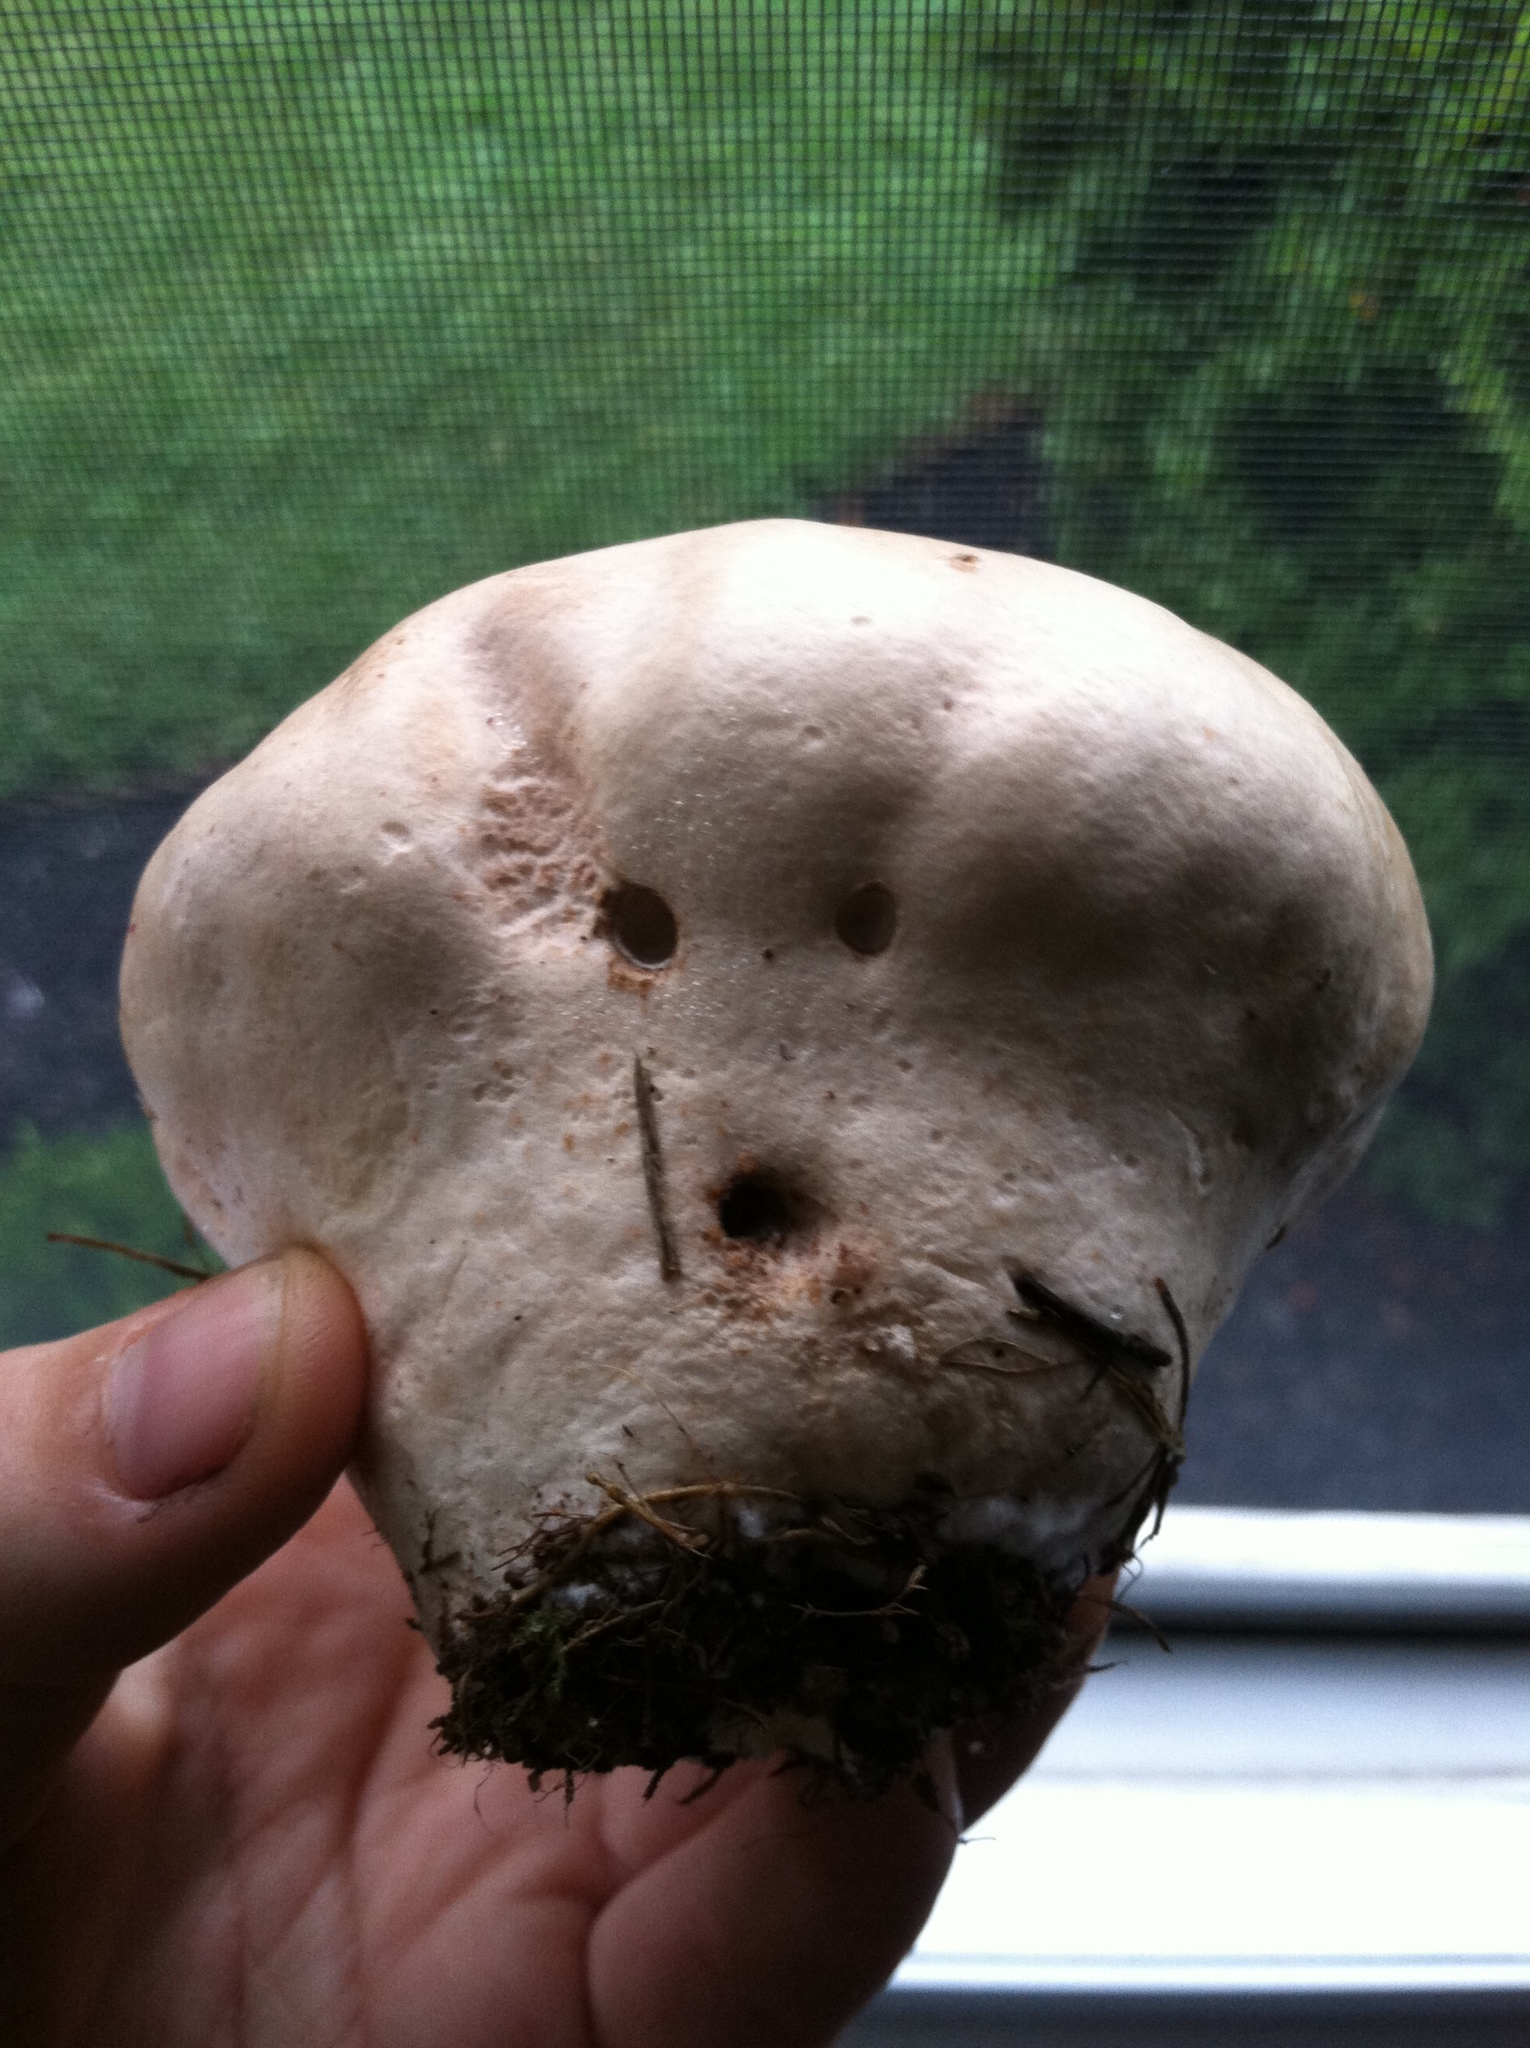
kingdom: Fungi
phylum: Basidiomycota
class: Agaricomycetes
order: Agaricales
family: Lycoperdaceae
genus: Calvatia
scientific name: Calvatia cyathiformis
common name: Purple-spored puffball
